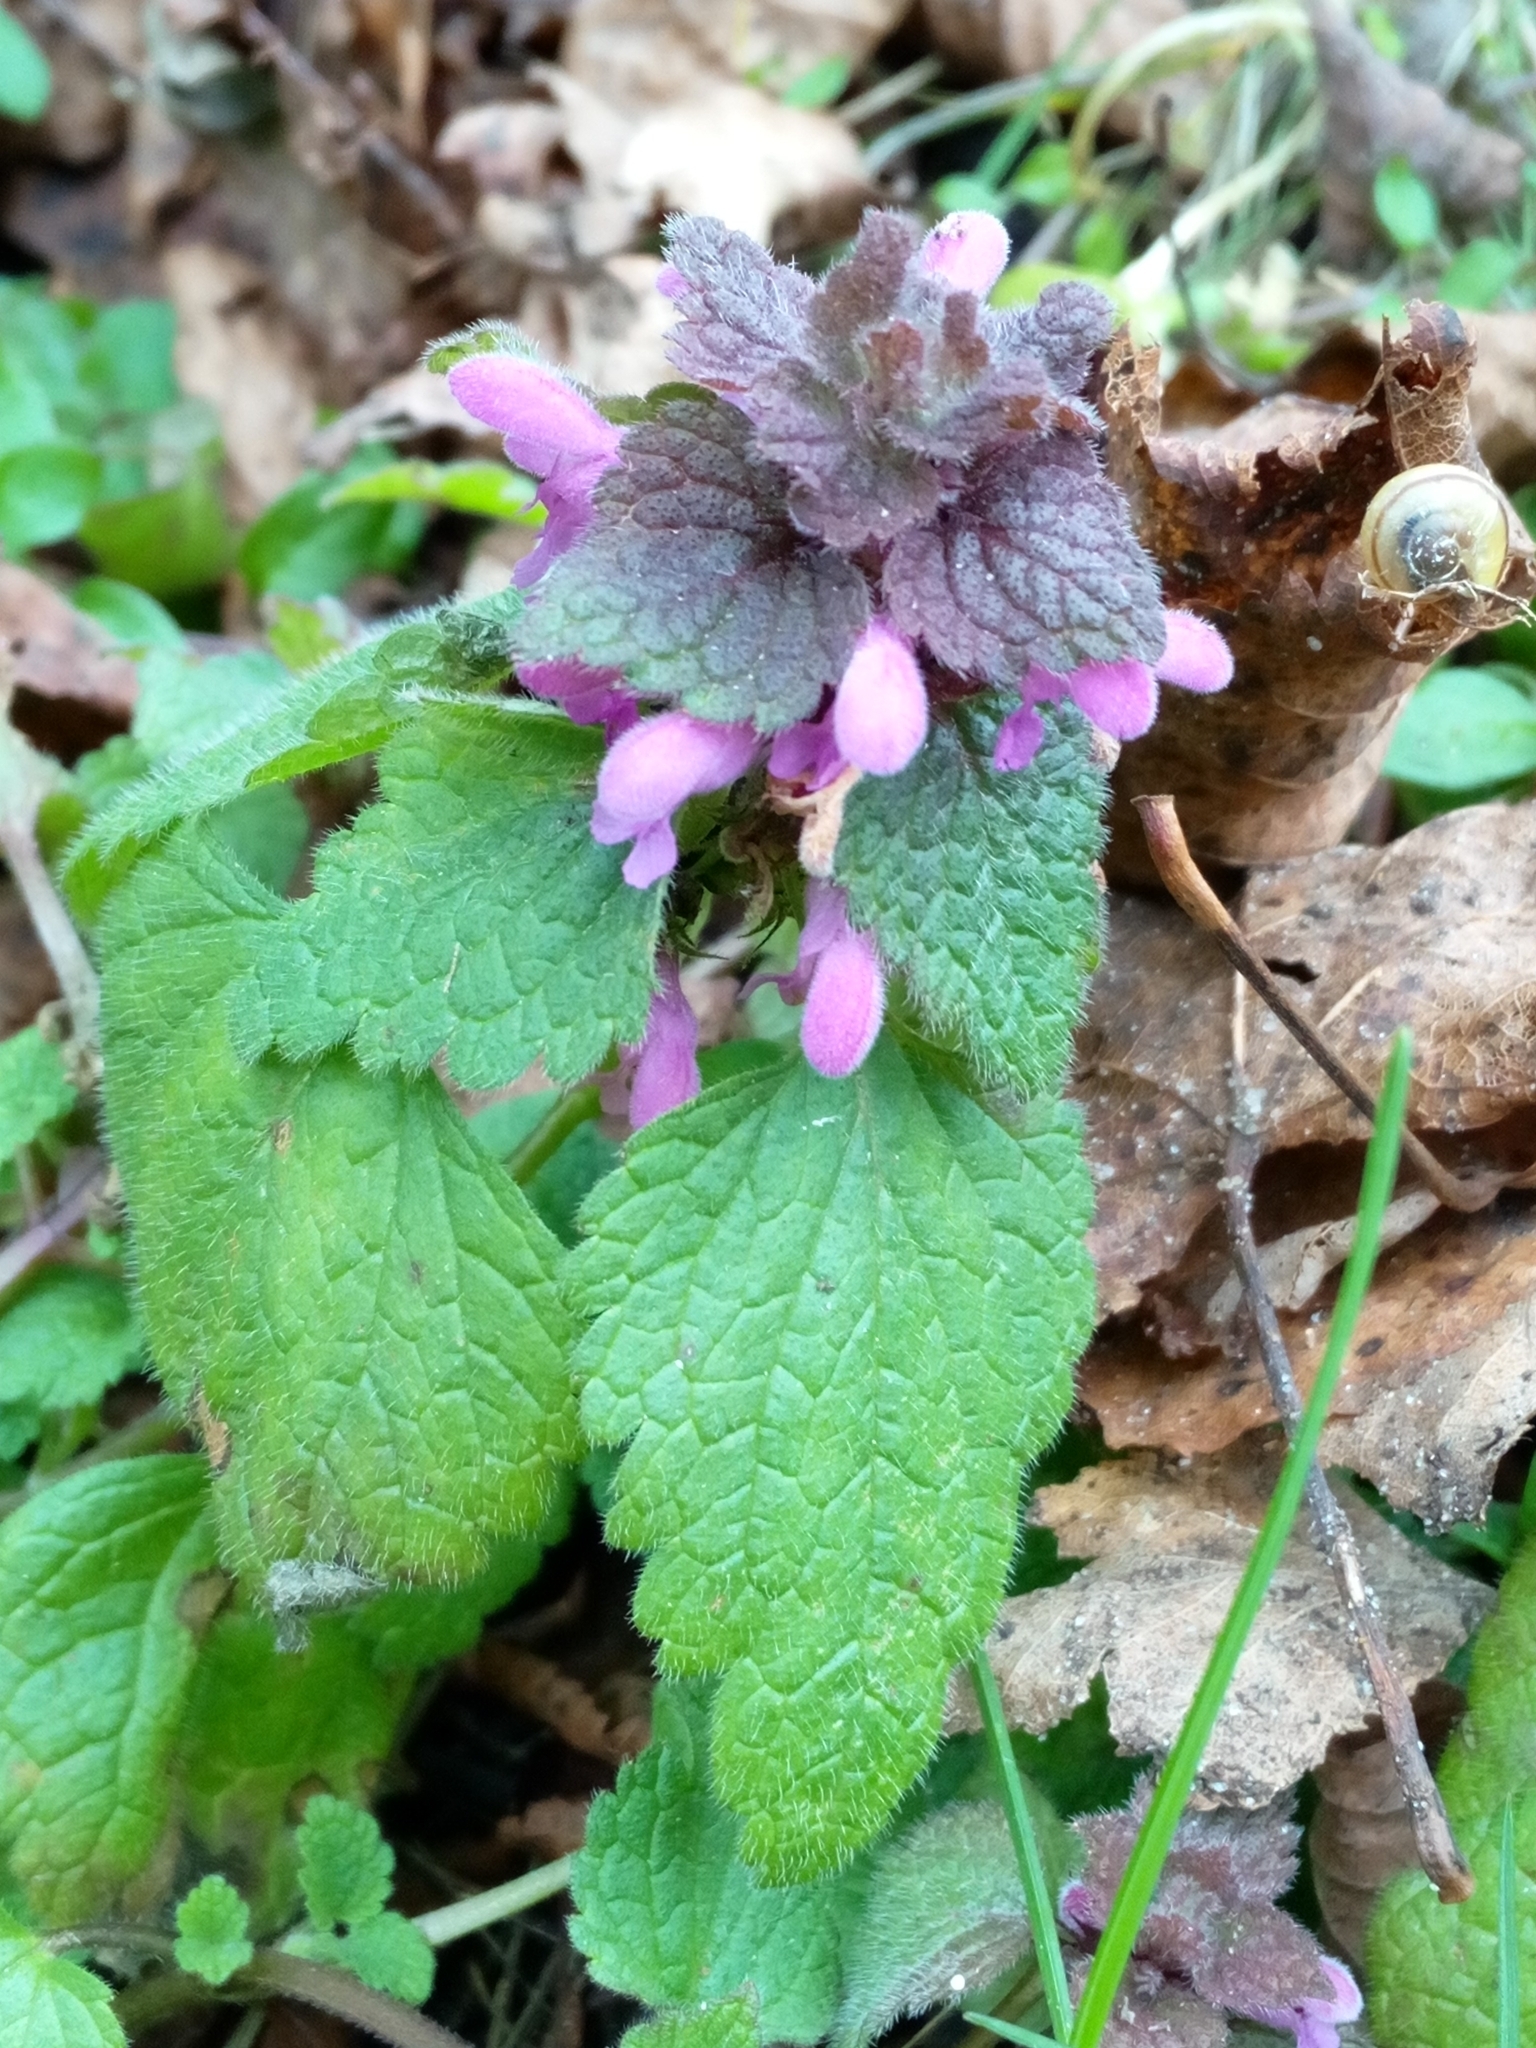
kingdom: Plantae
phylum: Tracheophyta
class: Magnoliopsida
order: Lamiales
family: Lamiaceae
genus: Lamium
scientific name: Lamium purpureum
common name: Red dead-nettle
